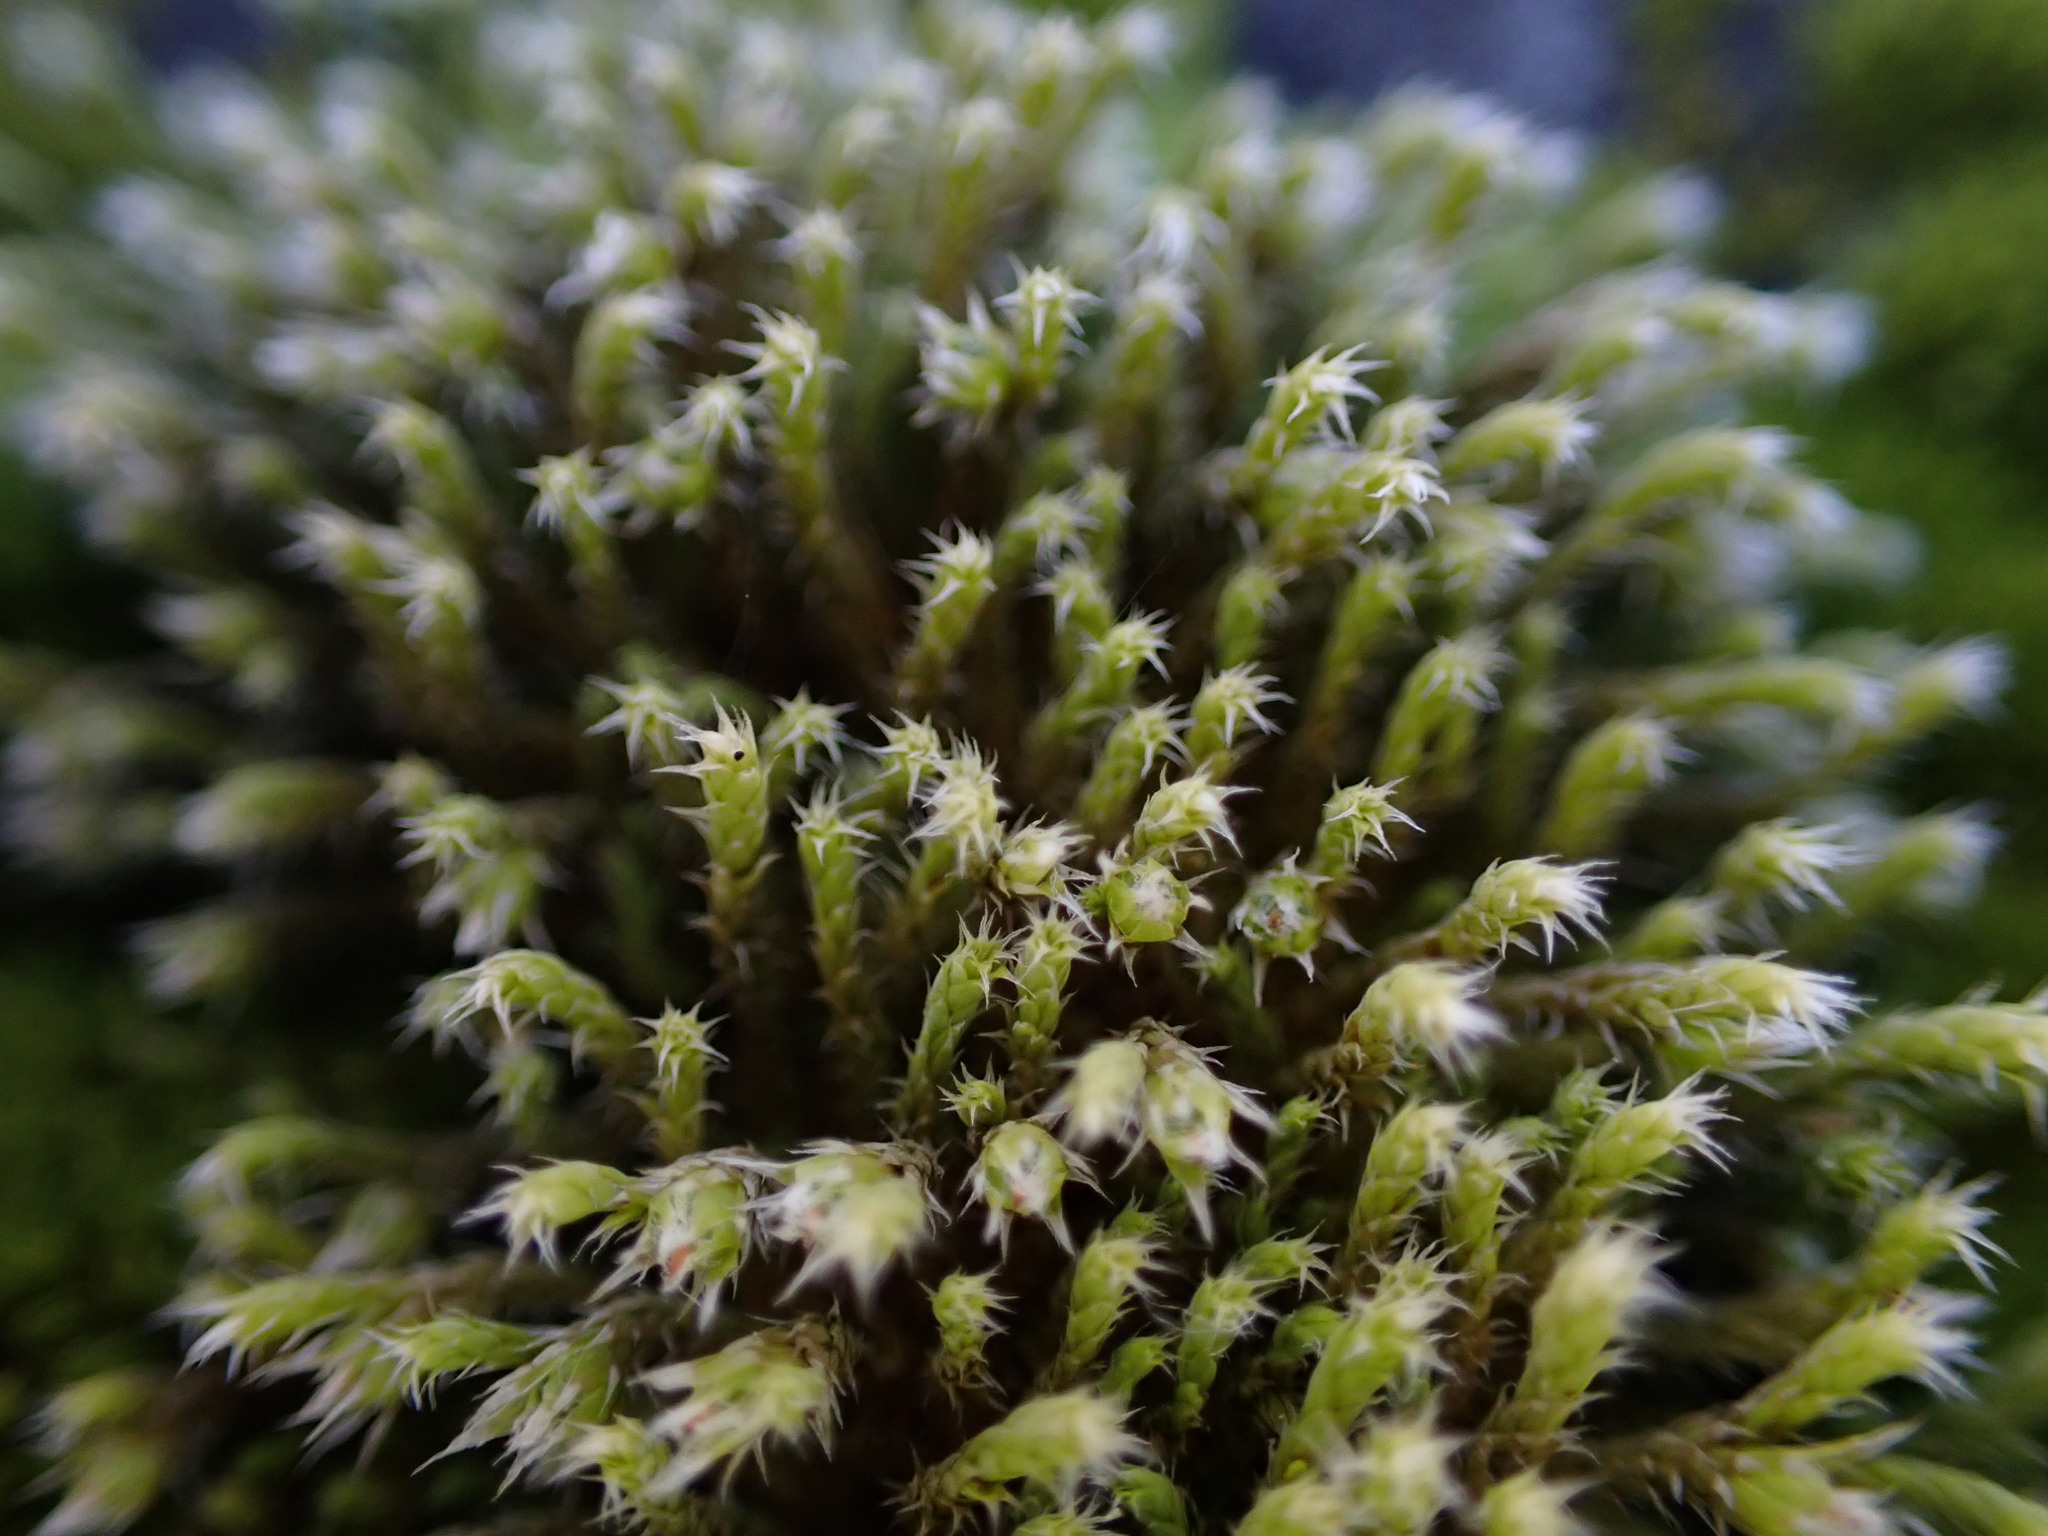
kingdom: Plantae
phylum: Bryophyta
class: Bryopsida
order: Hedwigiales
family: Hedwigiaceae
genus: Hedwigia
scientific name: Hedwigia stellata
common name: Starry hoar-moss
